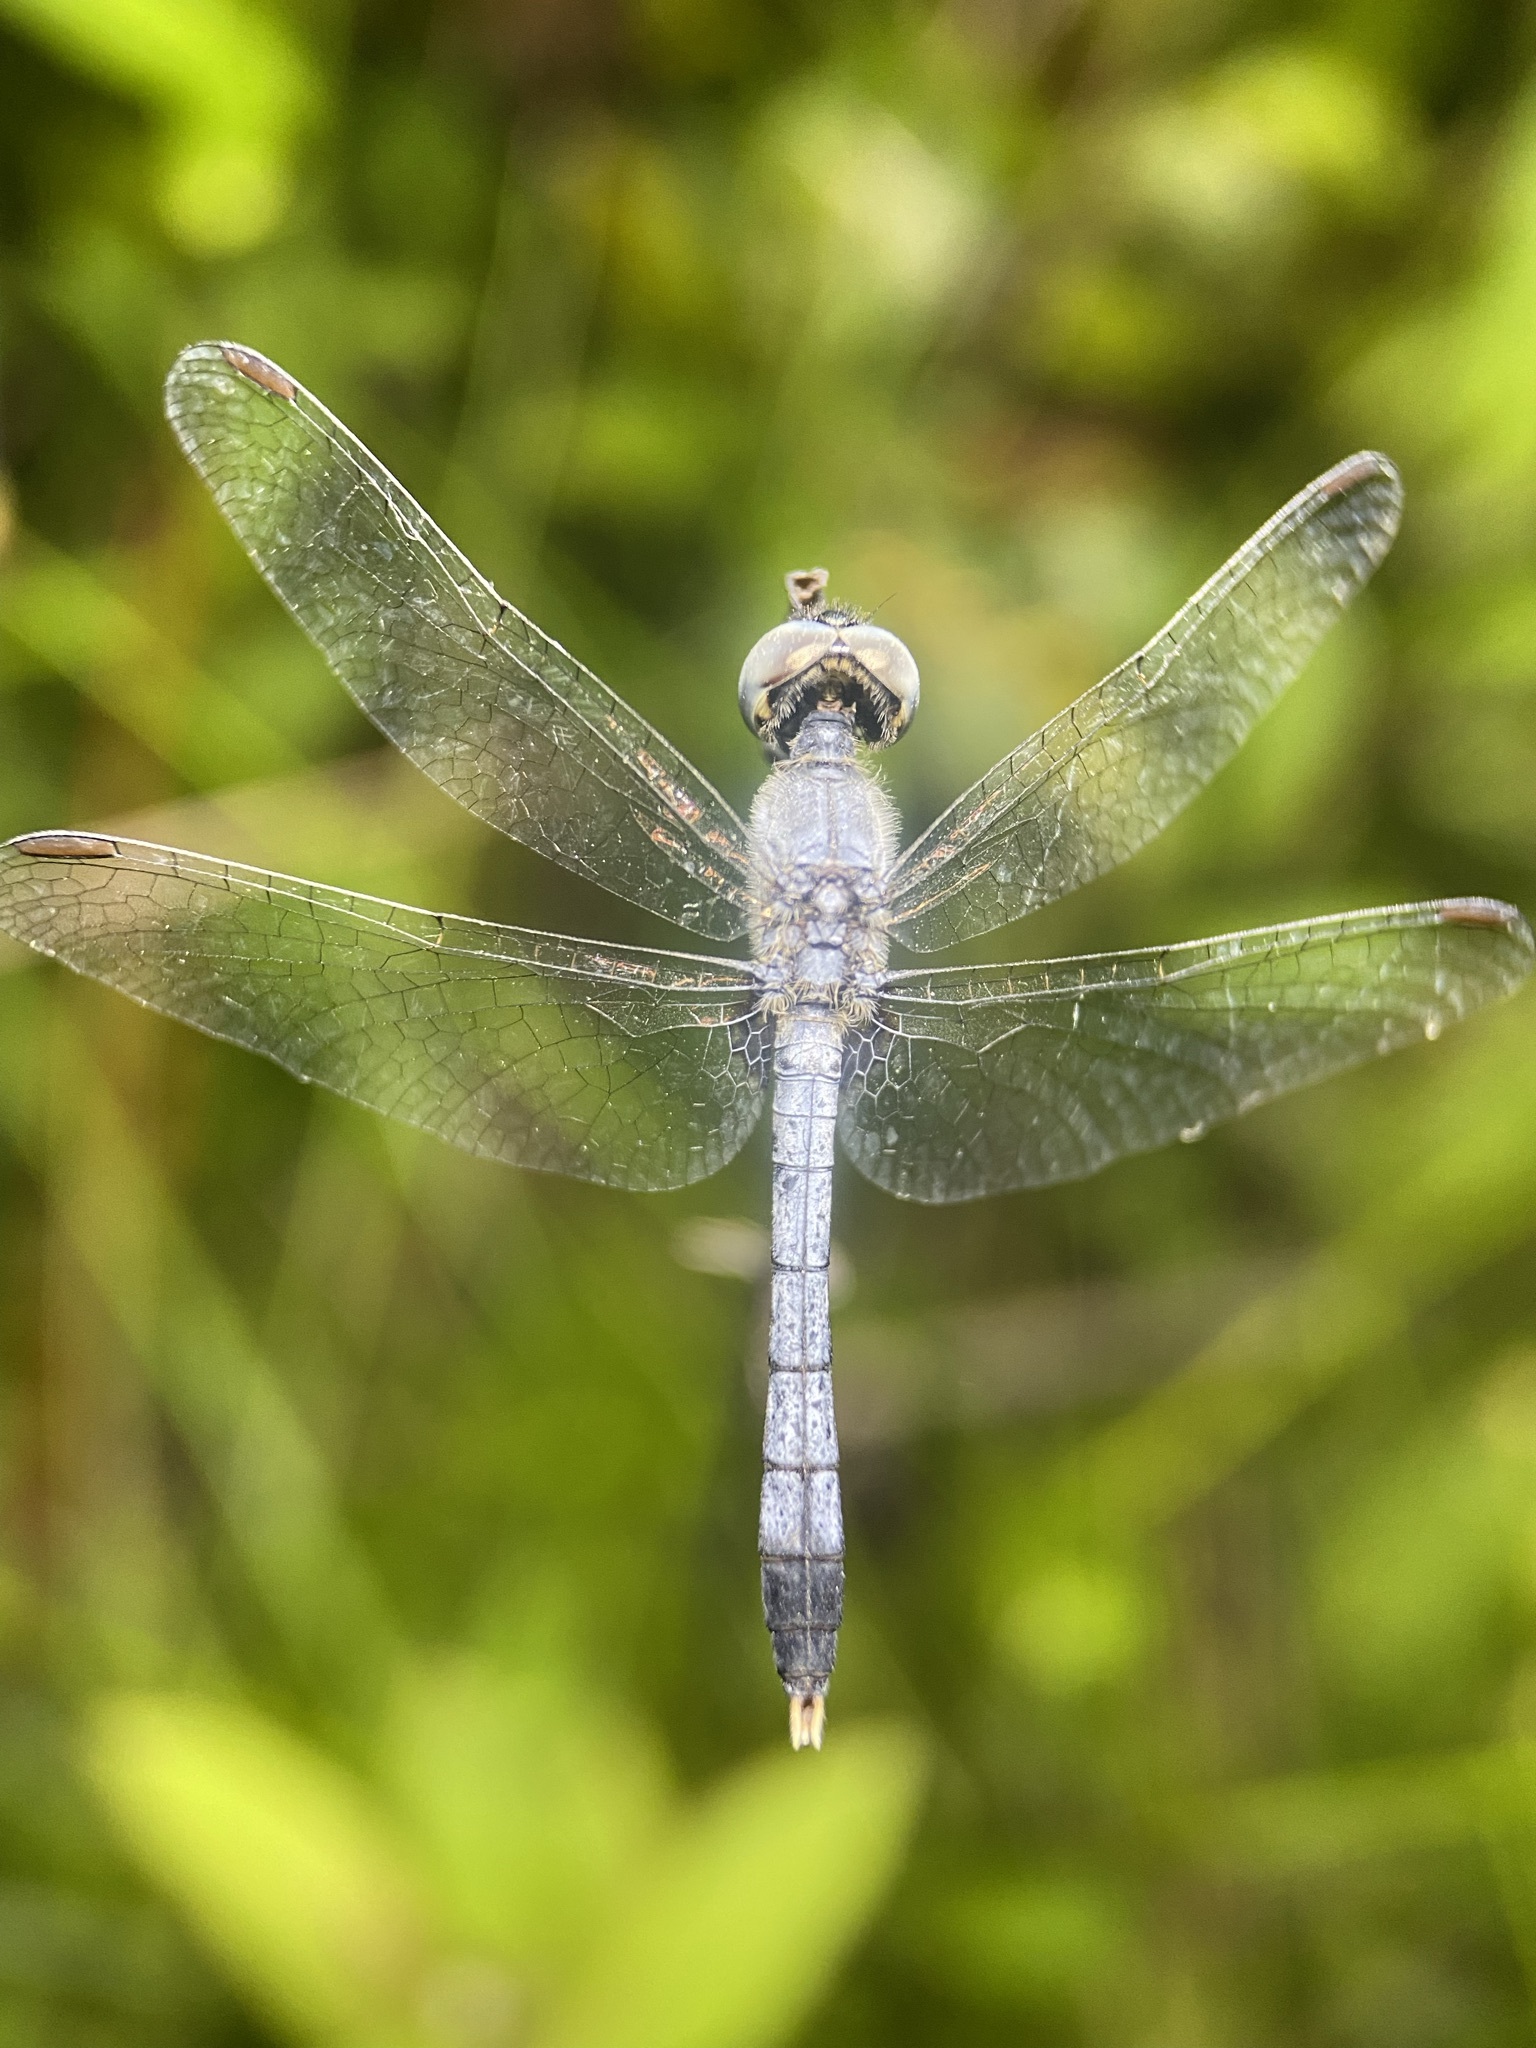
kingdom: Animalia
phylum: Arthropoda
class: Insecta
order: Odonata
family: Libellulidae
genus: Erythrodiplax
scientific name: Erythrodiplax minuscula
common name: Little blue dragonlet
